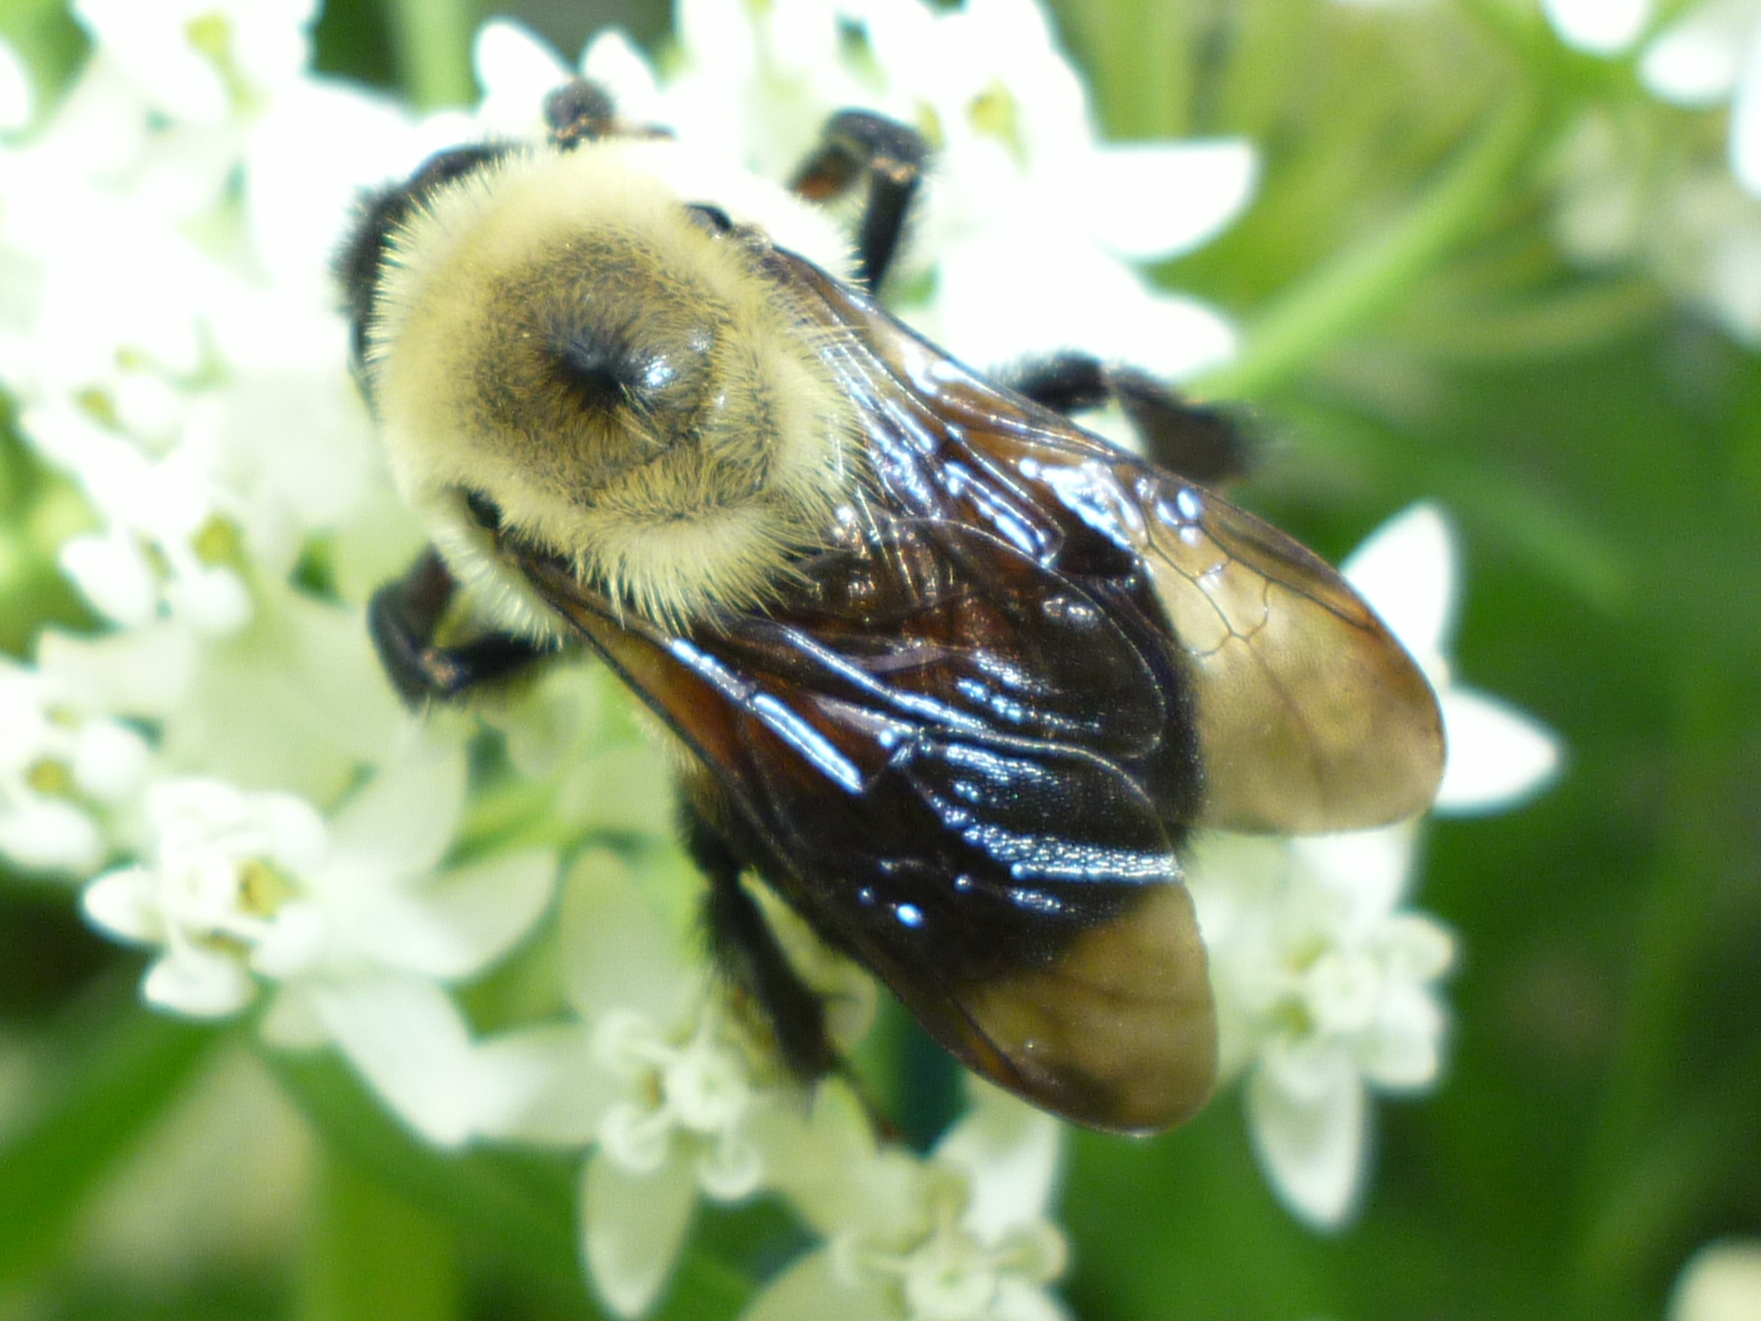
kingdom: Animalia
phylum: Arthropoda
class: Insecta
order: Hymenoptera
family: Apidae
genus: Bombus
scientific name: Bombus griseocollis
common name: Brown-belted bumble bee
